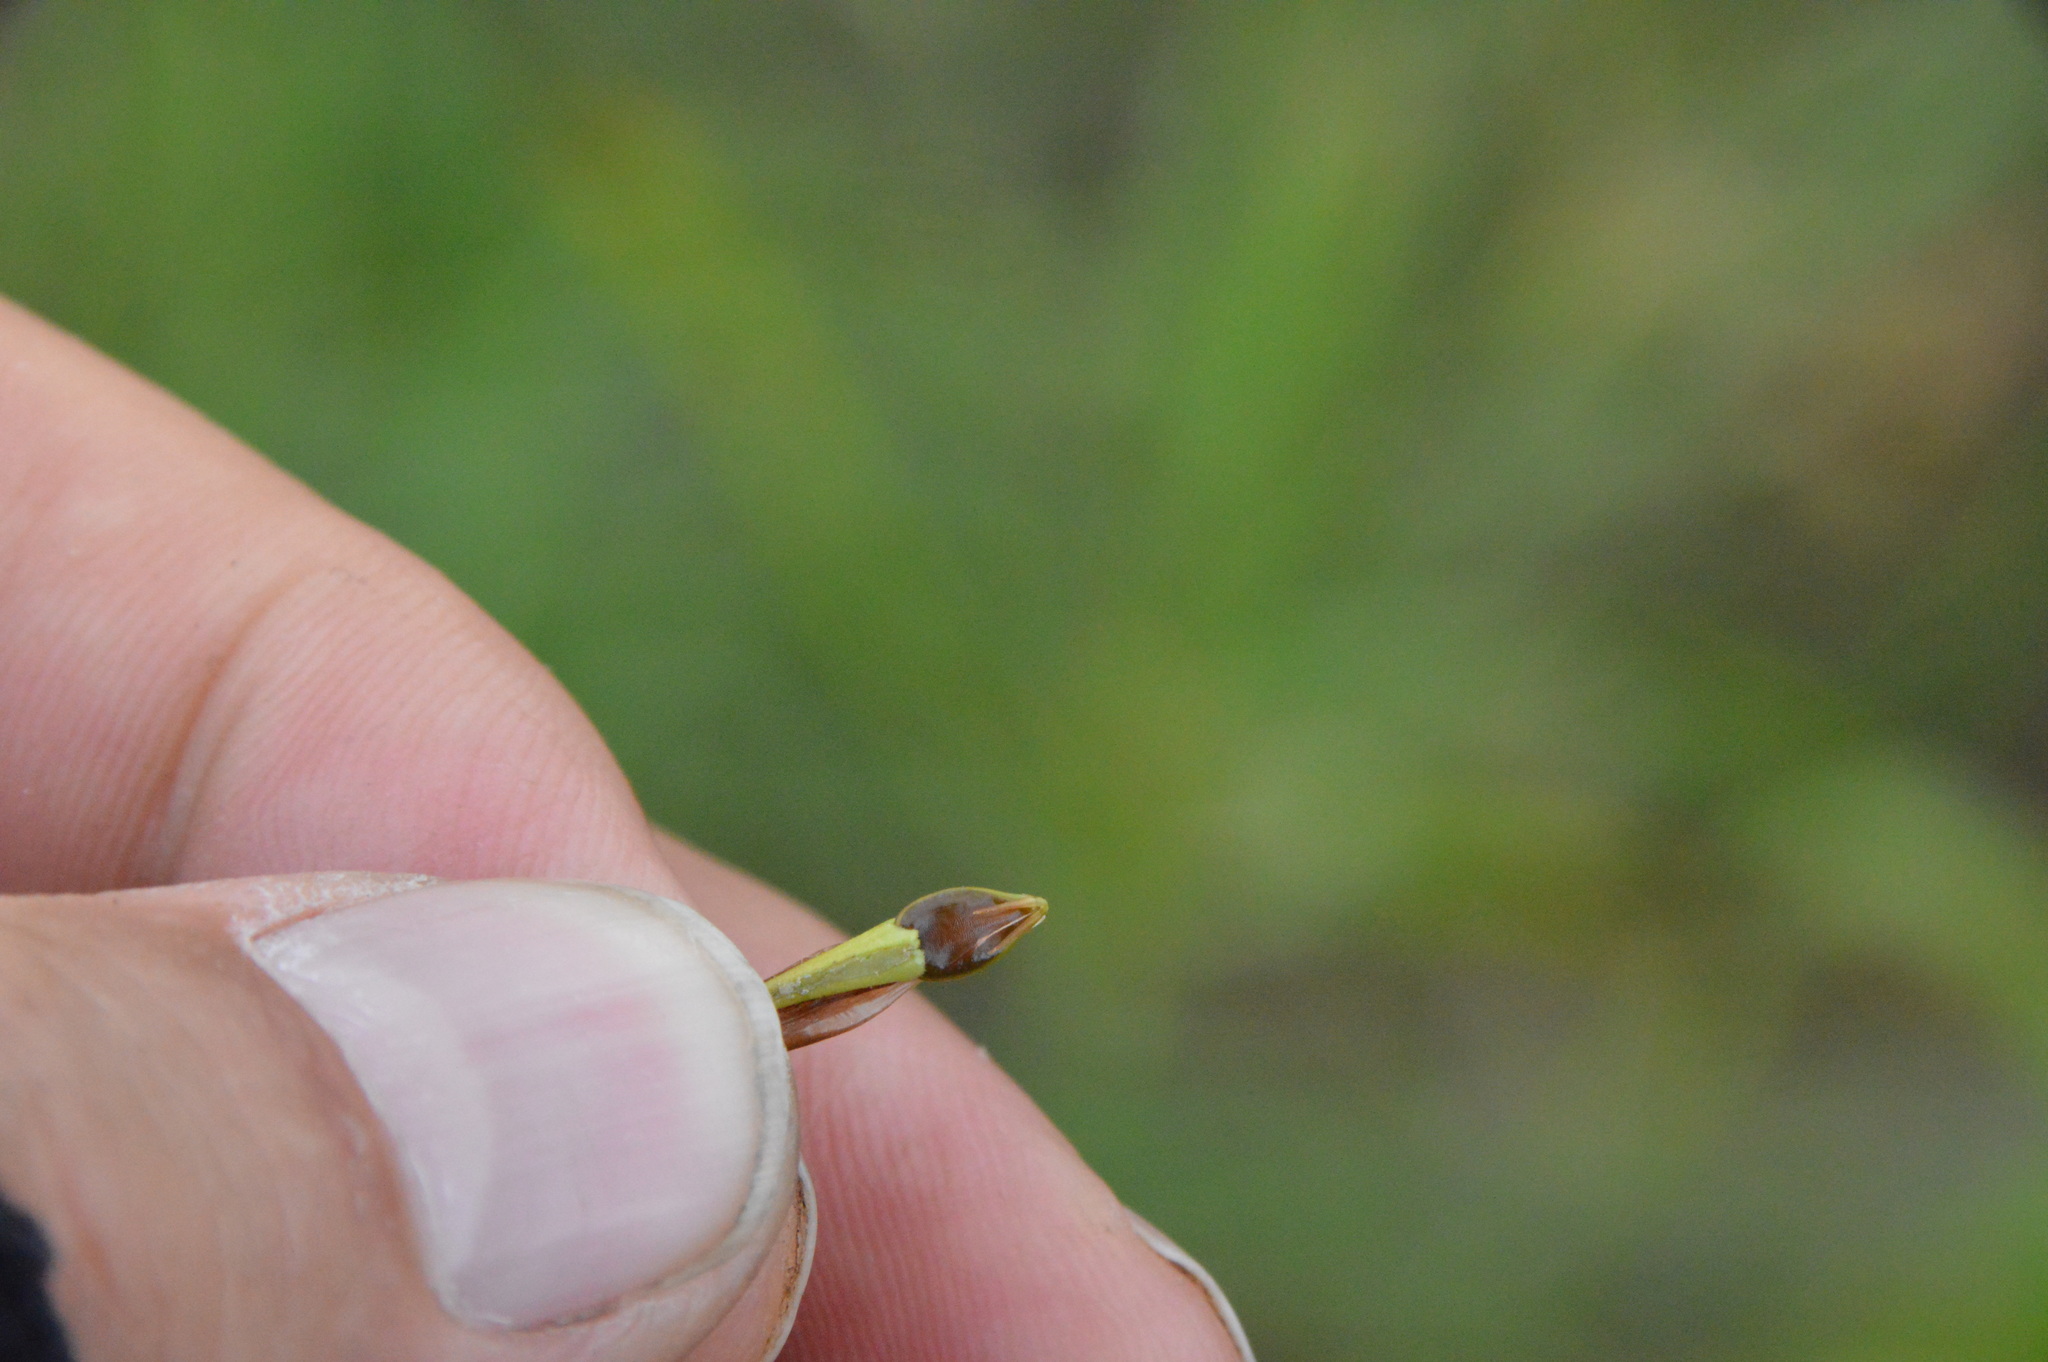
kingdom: Plantae
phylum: Tracheophyta
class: Liliopsida
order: Poales
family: Cyperaceae
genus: Rhynchospora
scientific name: Rhynchospora corniculata
